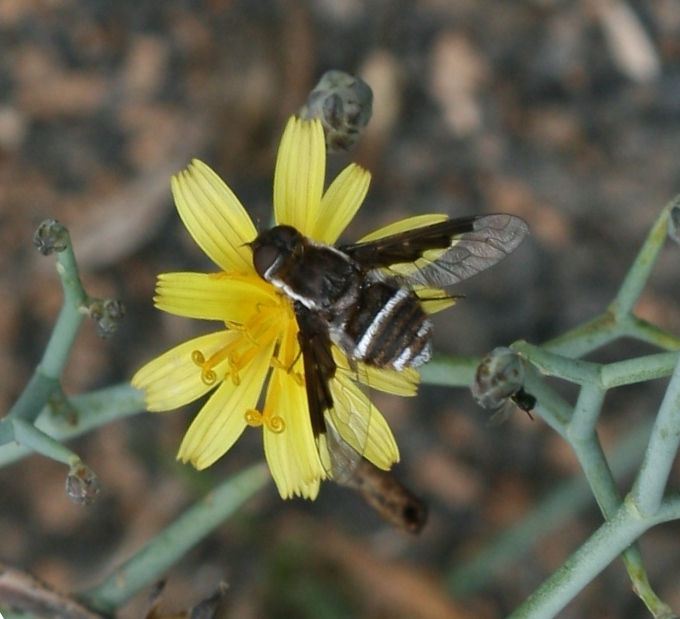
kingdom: Animalia
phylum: Arthropoda
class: Insecta
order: Diptera
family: Bombyliidae
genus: Exhyalanthrax
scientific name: Exhyalanthrax simonae
